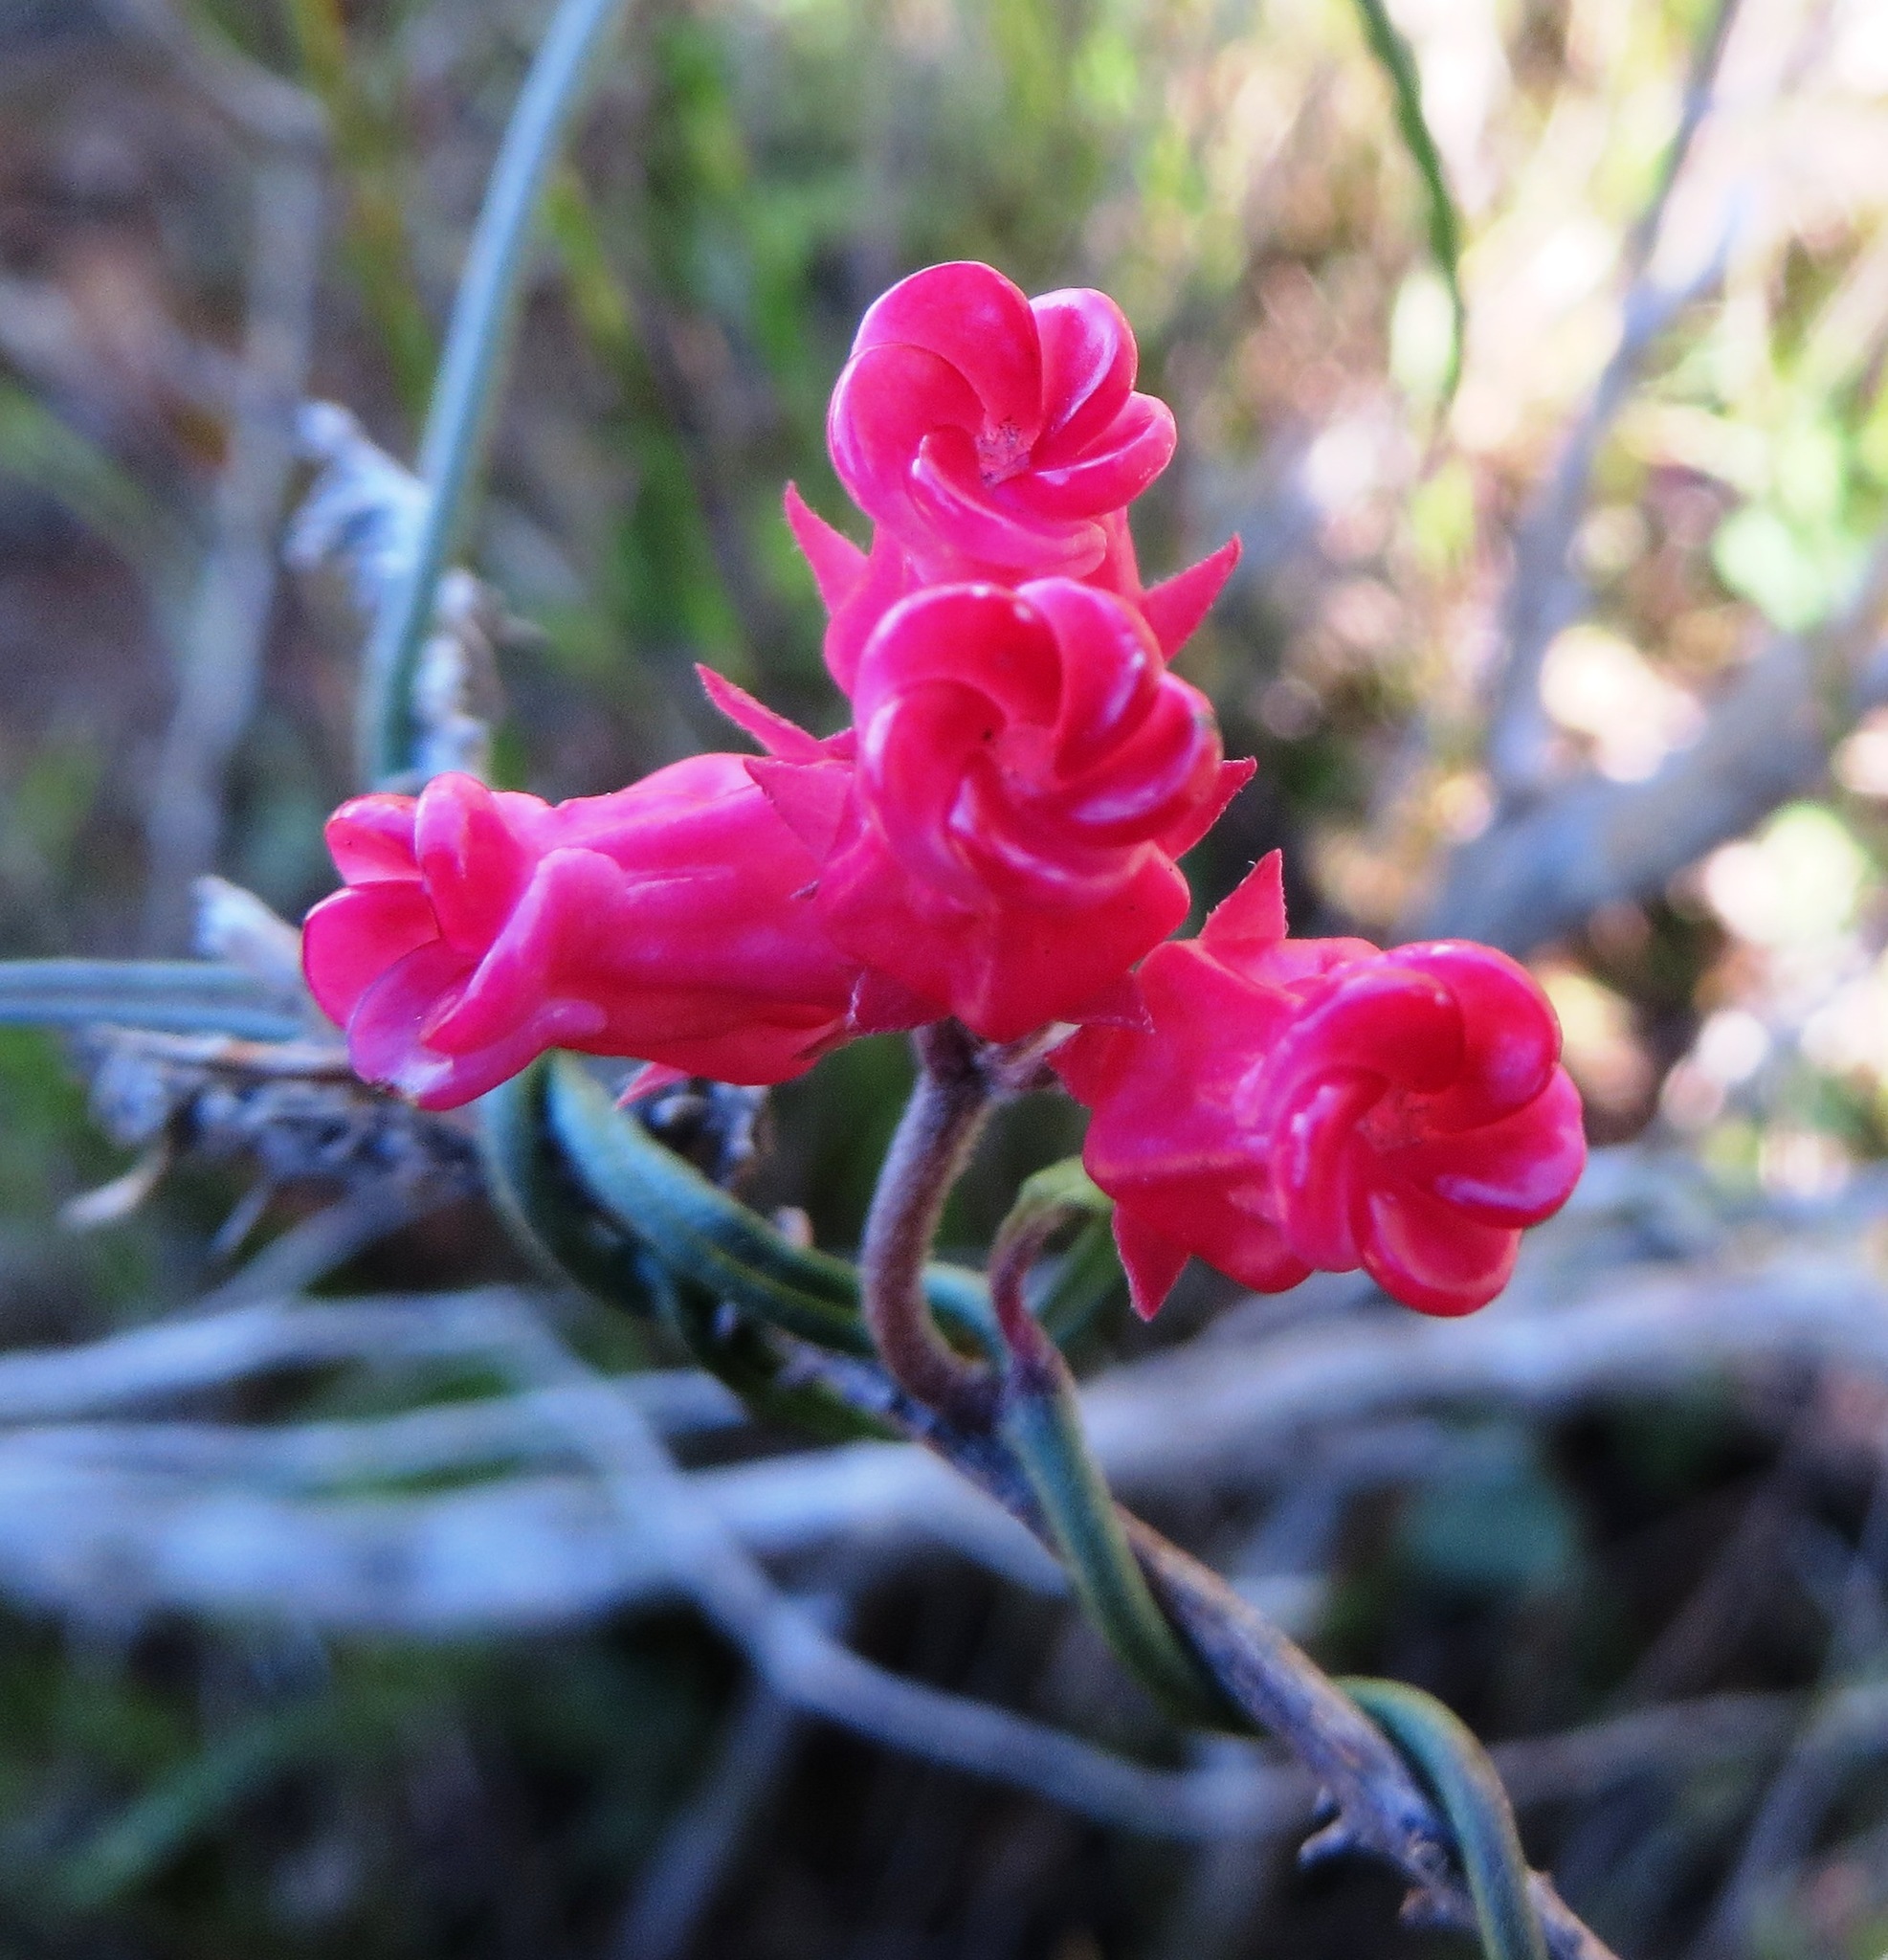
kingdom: Plantae
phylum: Tracheophyta
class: Magnoliopsida
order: Gentianales
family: Apocynaceae
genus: Microloma
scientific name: Microloma tenuifolium
